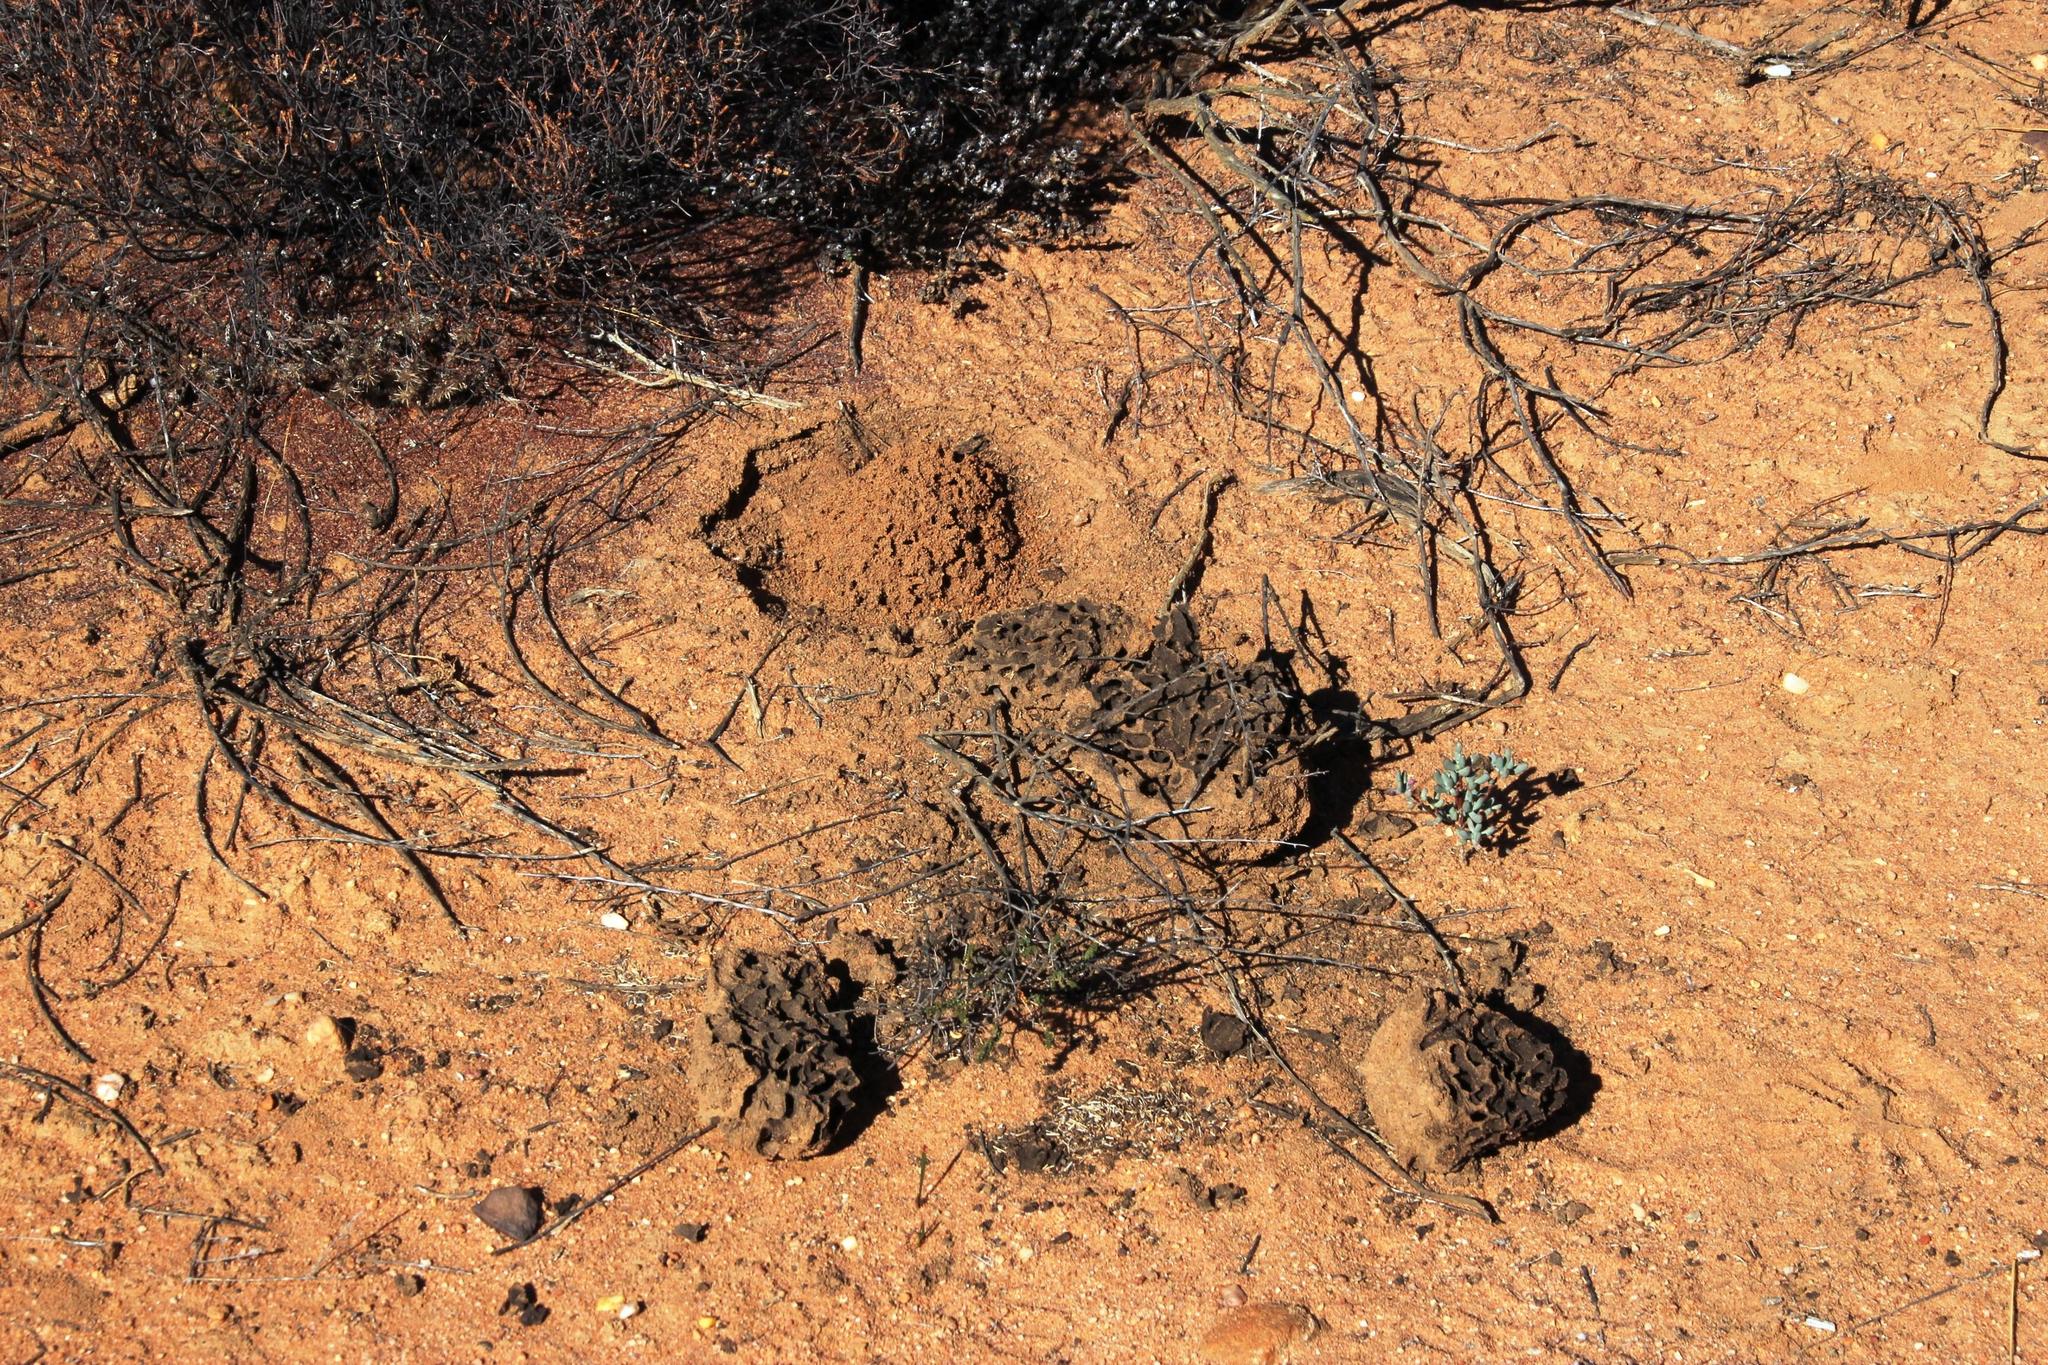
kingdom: Animalia
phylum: Chordata
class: Mammalia
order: Tubulidentata
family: Orycteropodidae
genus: Orycteropus
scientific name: Orycteropus afer
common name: Aardvark
